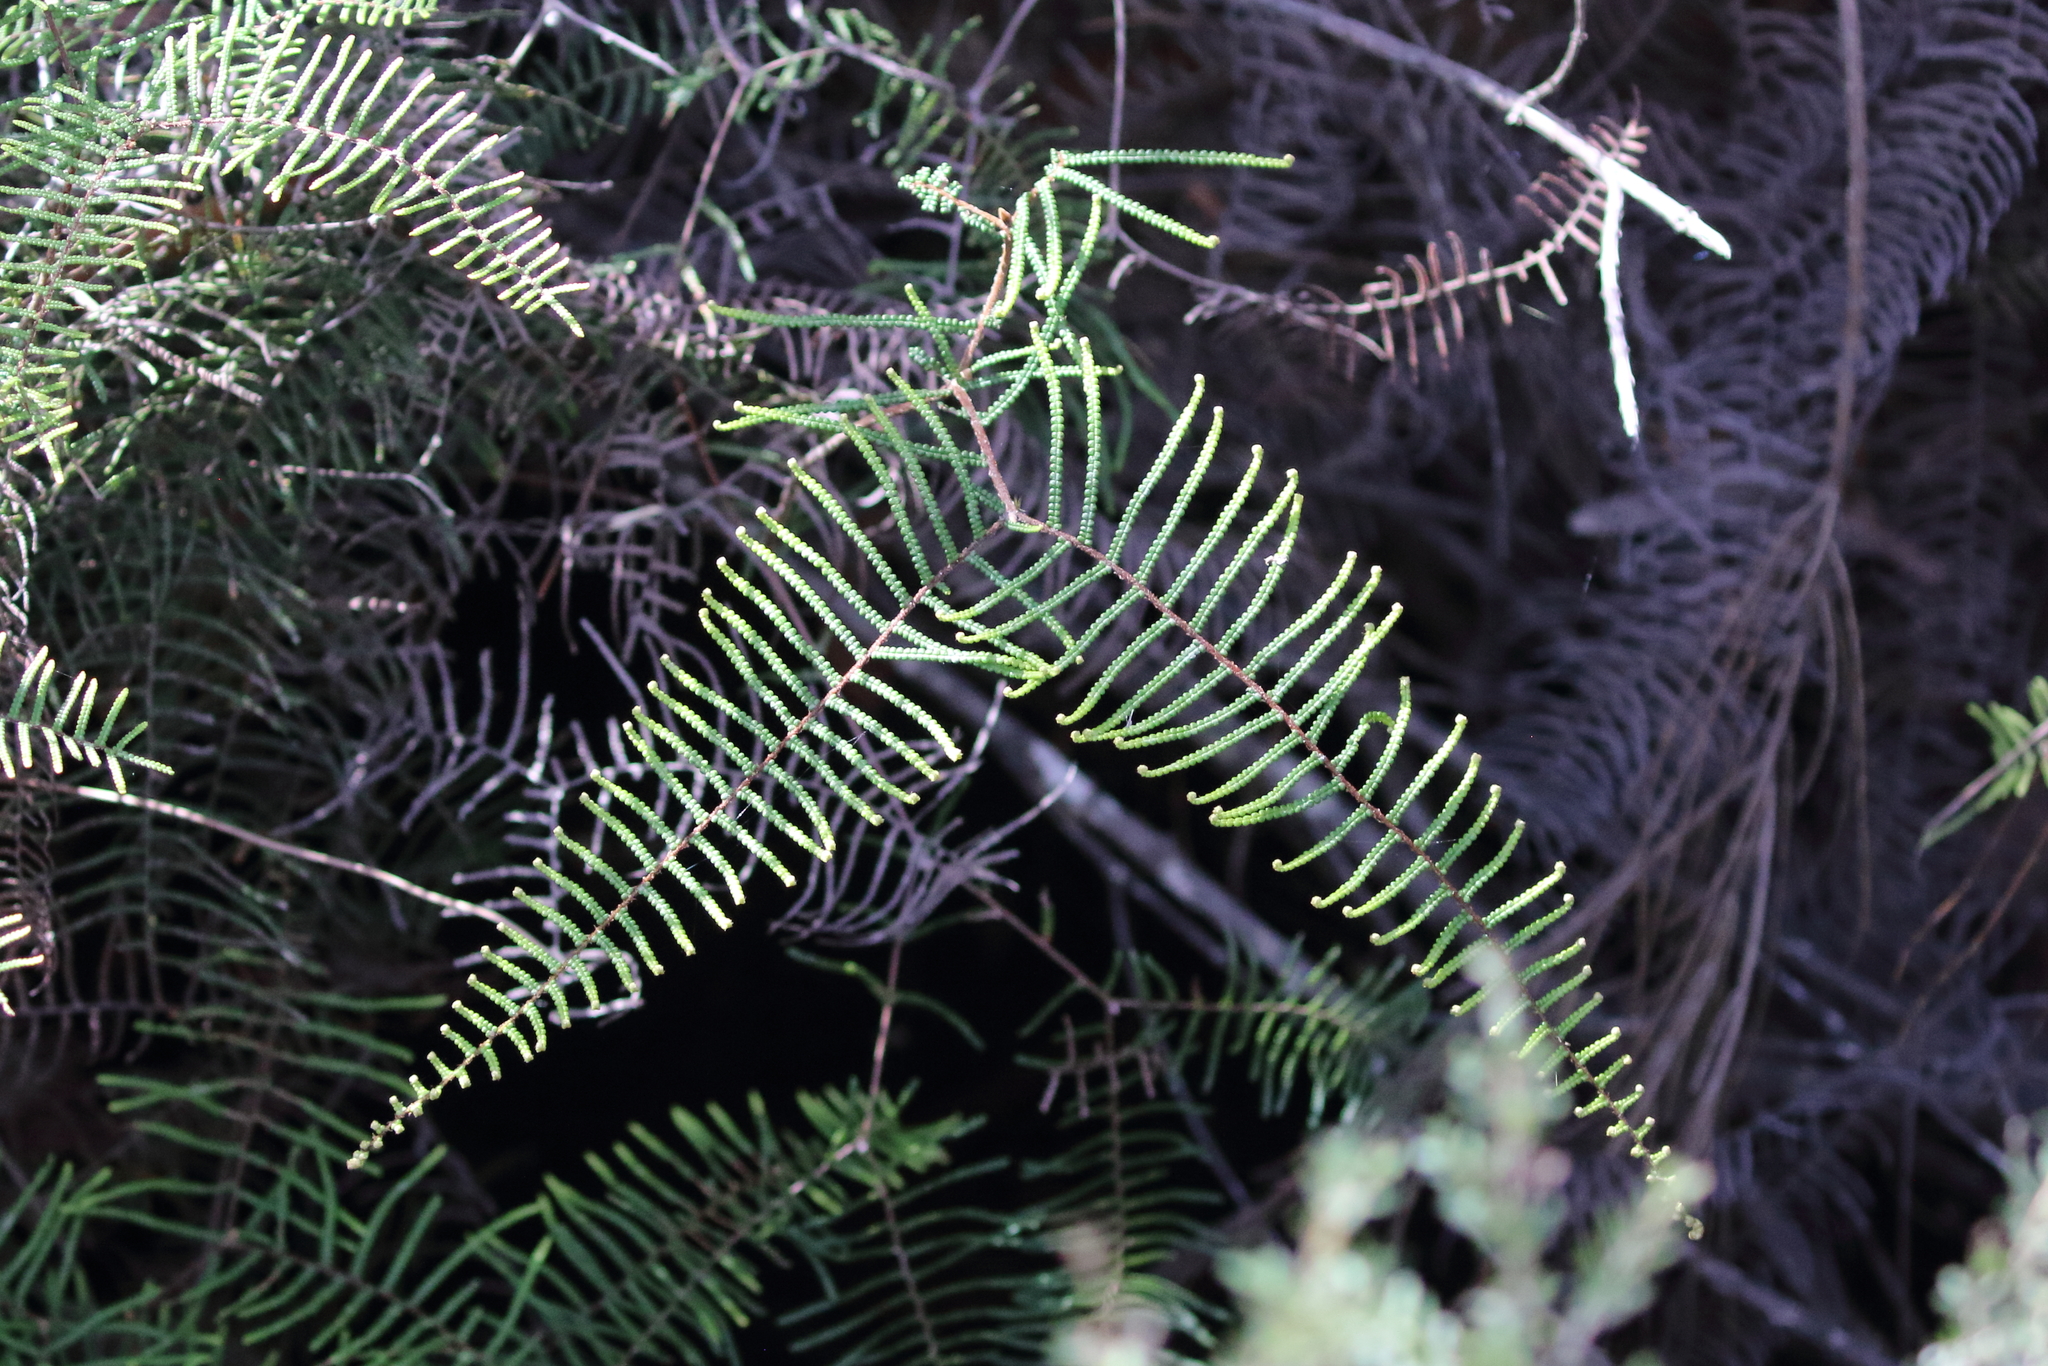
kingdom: Plantae
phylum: Tracheophyta
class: Polypodiopsida
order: Gleicheniales
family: Gleicheniaceae
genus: Gleichenia
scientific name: Gleichenia dicarpa
